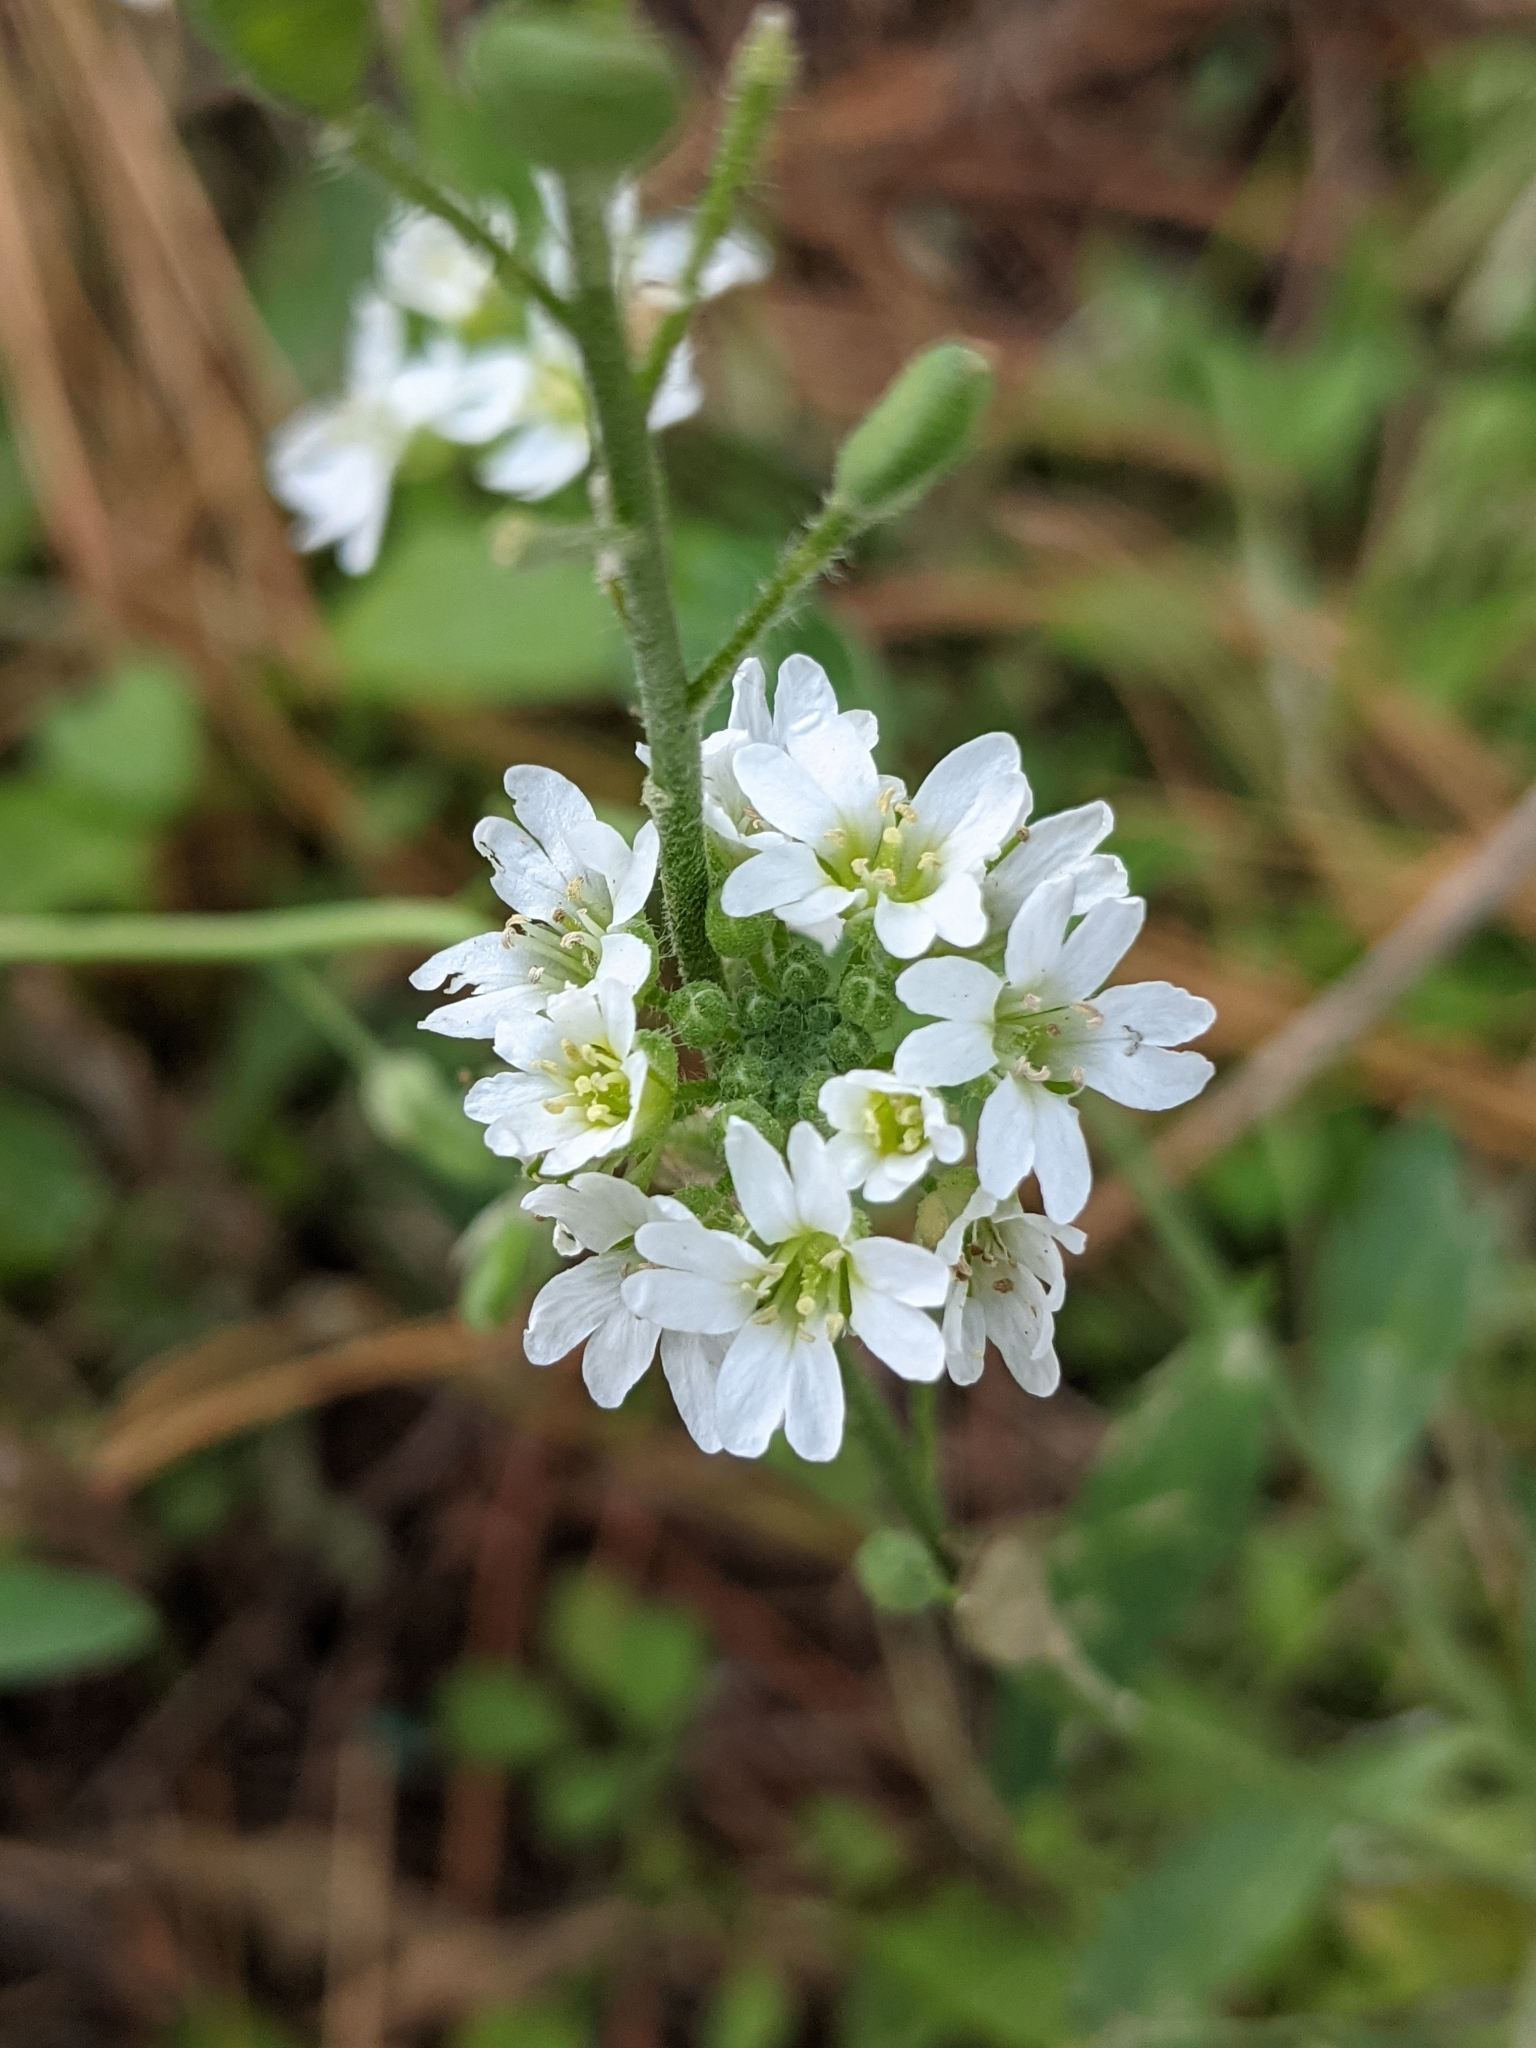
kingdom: Plantae
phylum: Tracheophyta
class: Magnoliopsida
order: Brassicales
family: Brassicaceae
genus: Berteroa
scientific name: Berteroa incana
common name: Hoary alison
